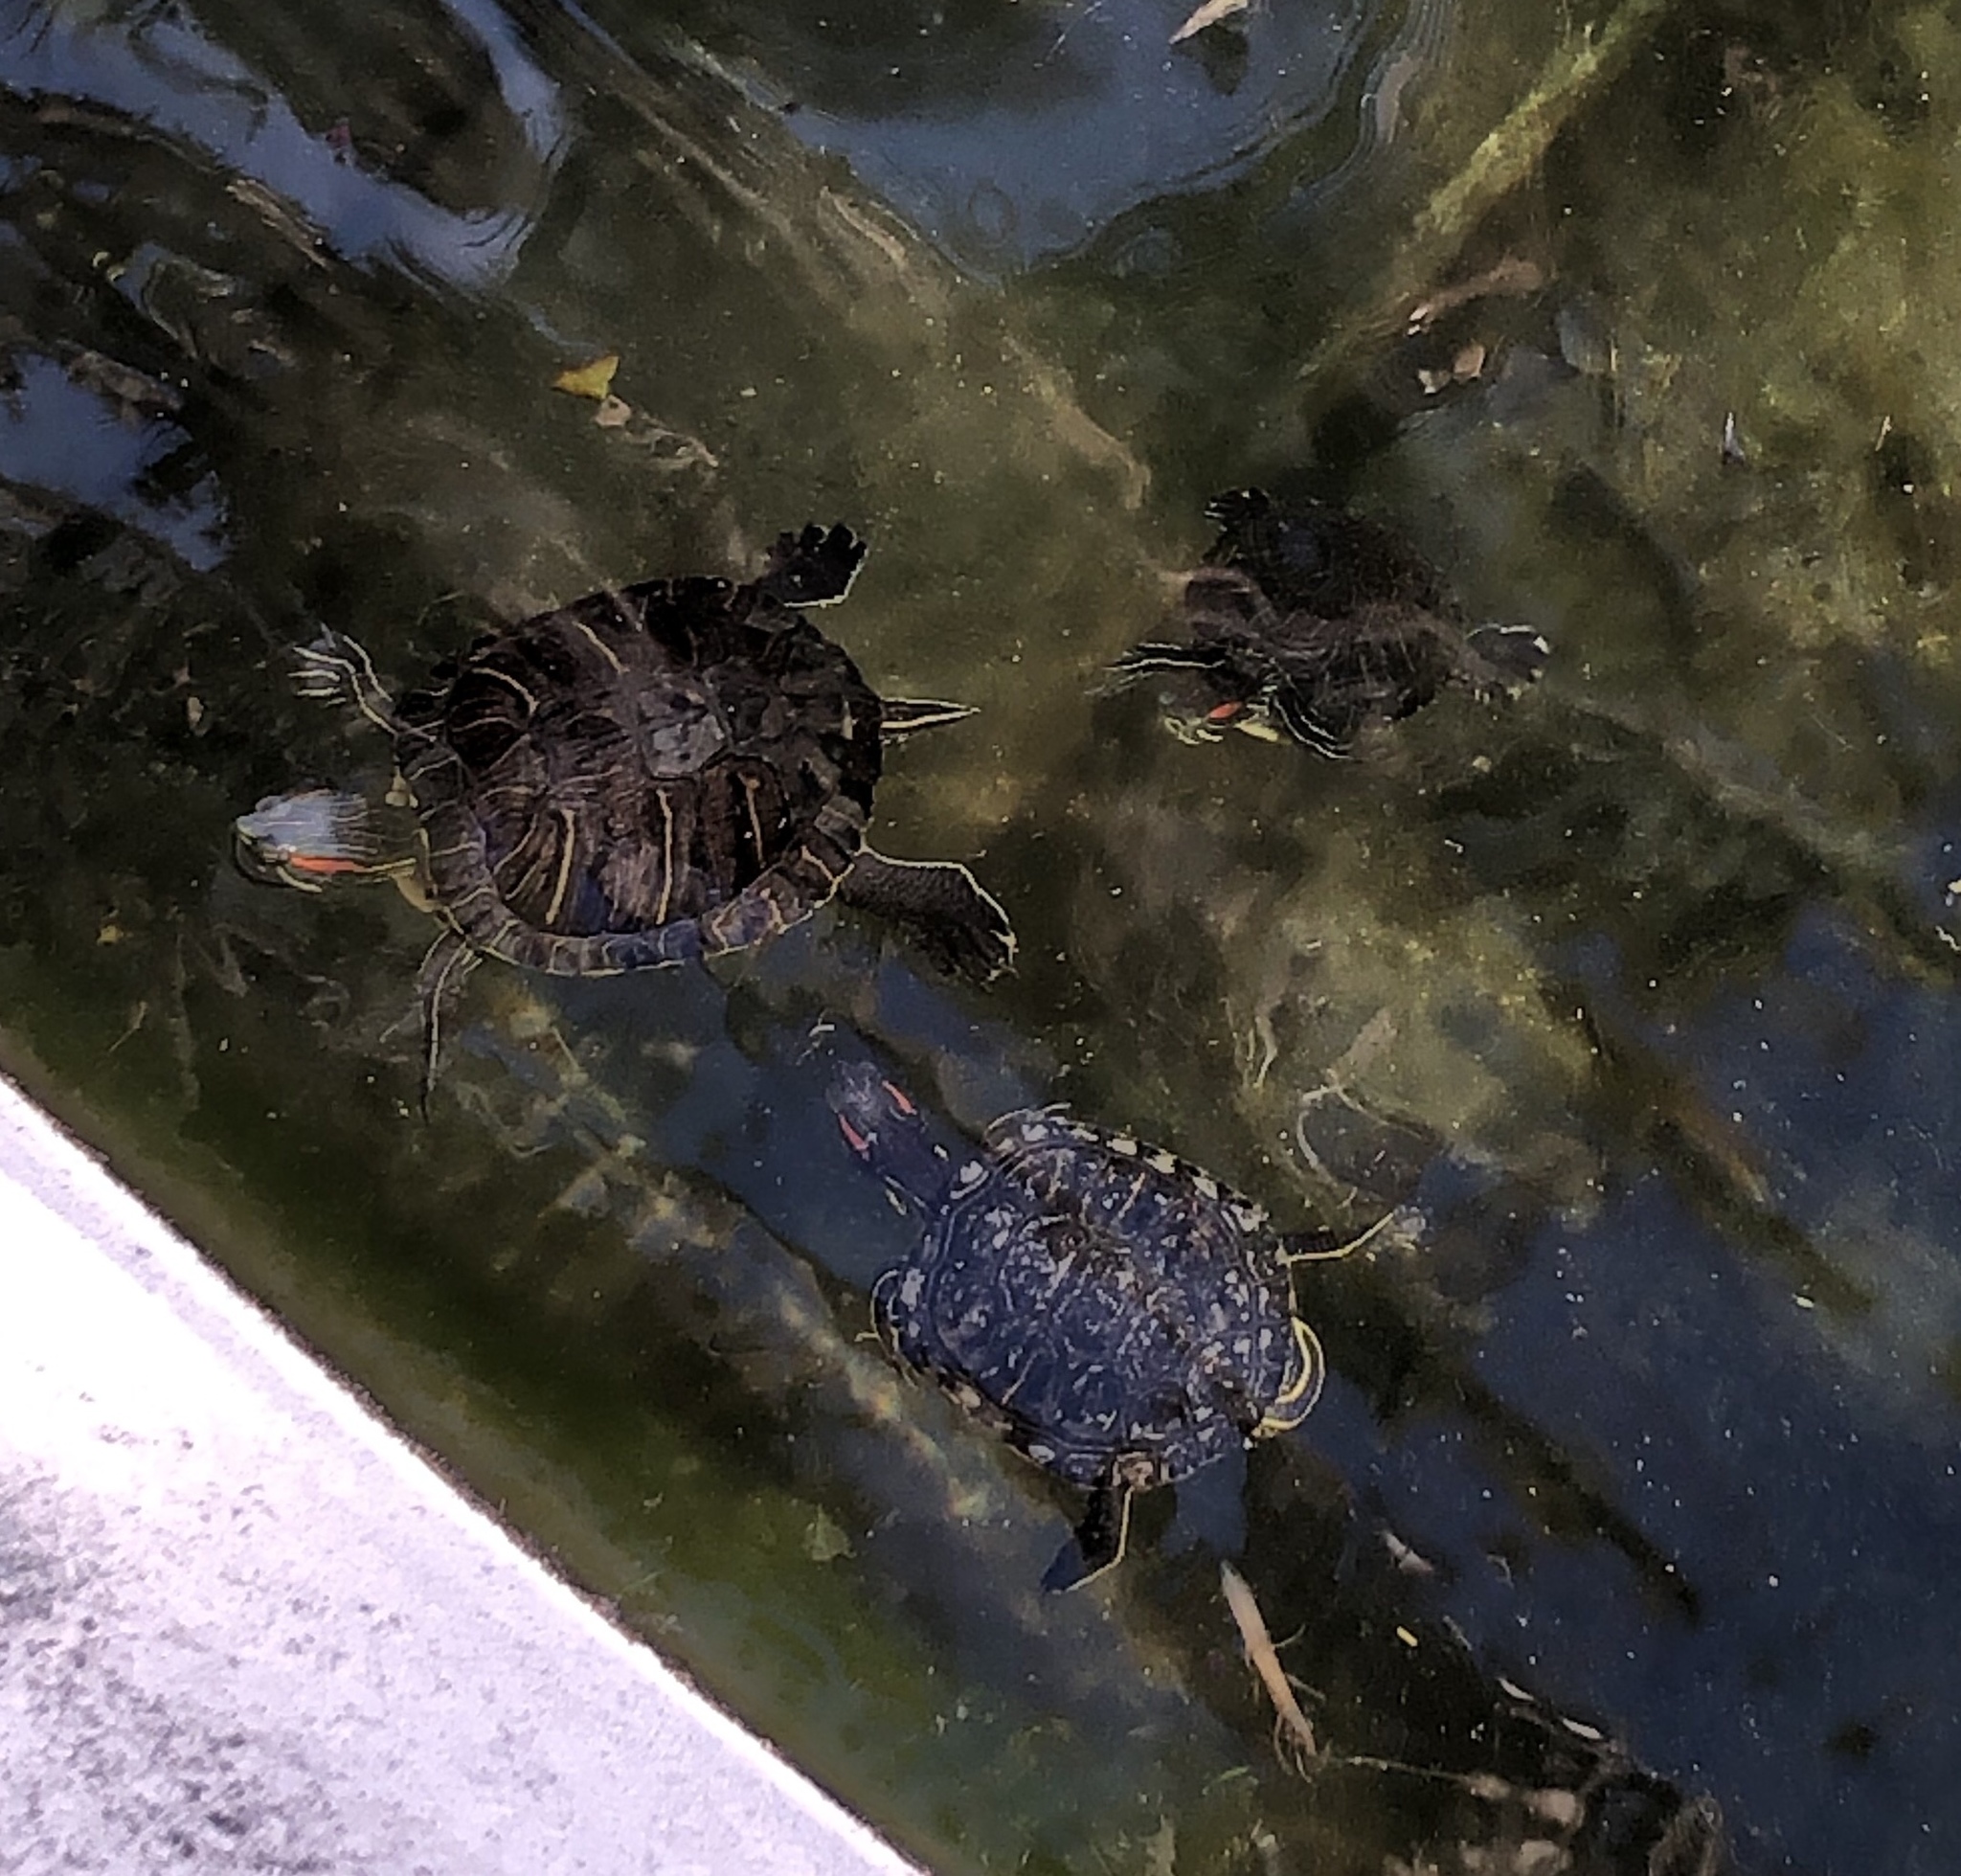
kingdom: Animalia
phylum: Chordata
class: Testudines
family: Emydidae
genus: Trachemys
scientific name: Trachemys scripta
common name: Slider
